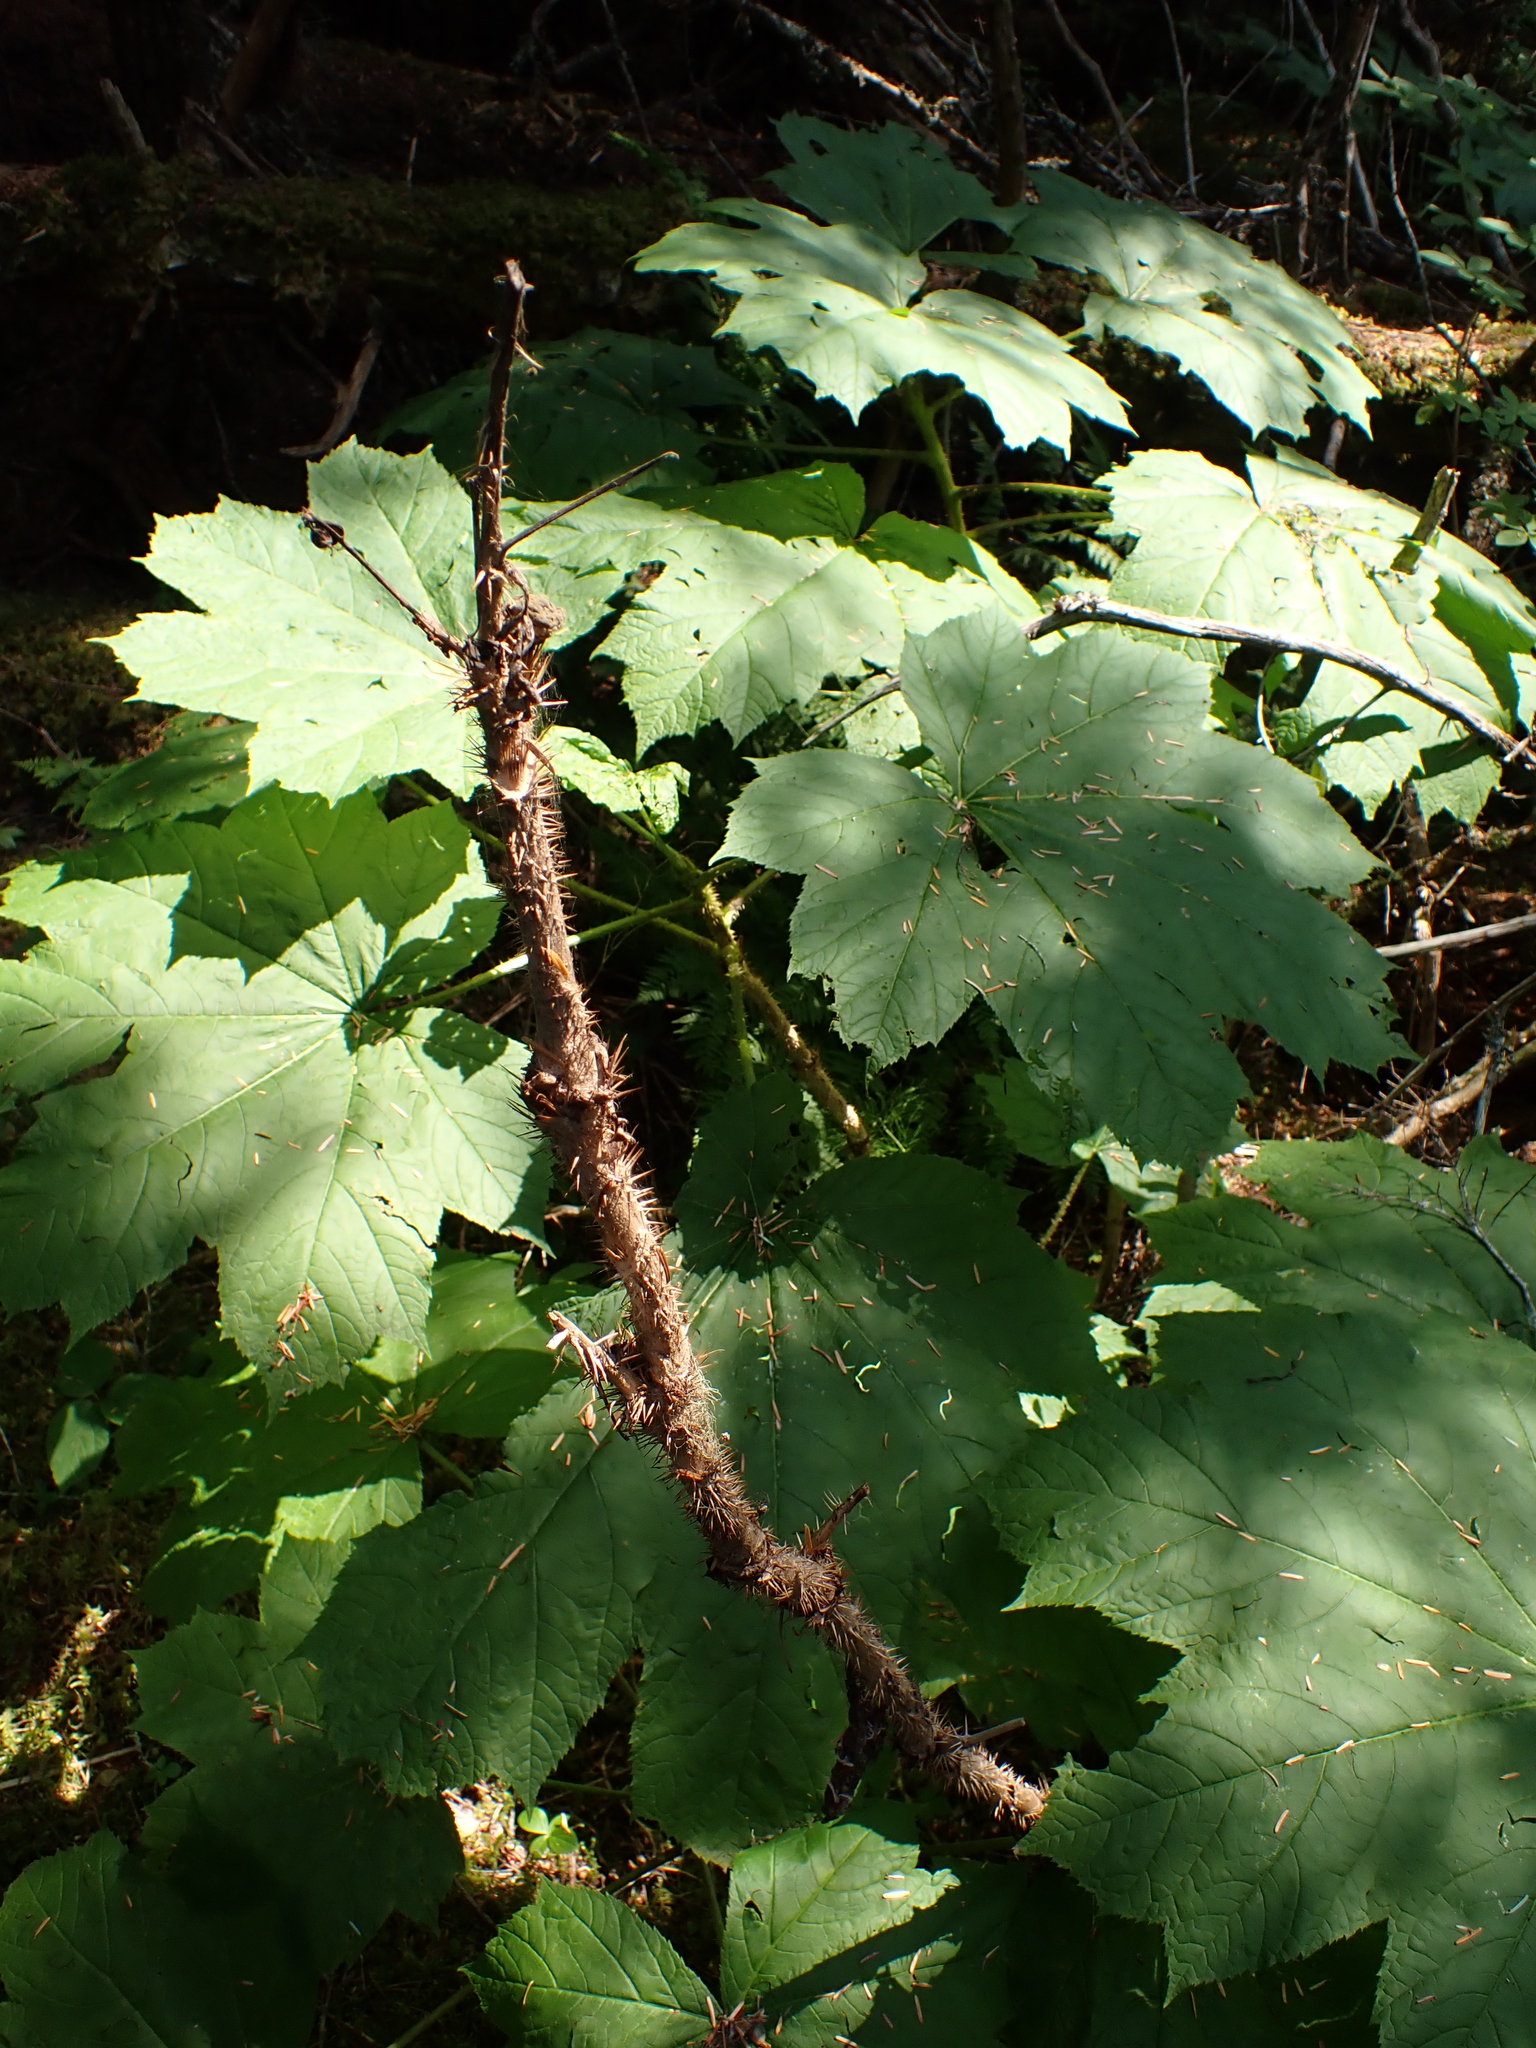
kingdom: Plantae
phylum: Tracheophyta
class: Magnoliopsida
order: Apiales
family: Araliaceae
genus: Oplopanax
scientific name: Oplopanax horridus
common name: Devil's walking-stick
